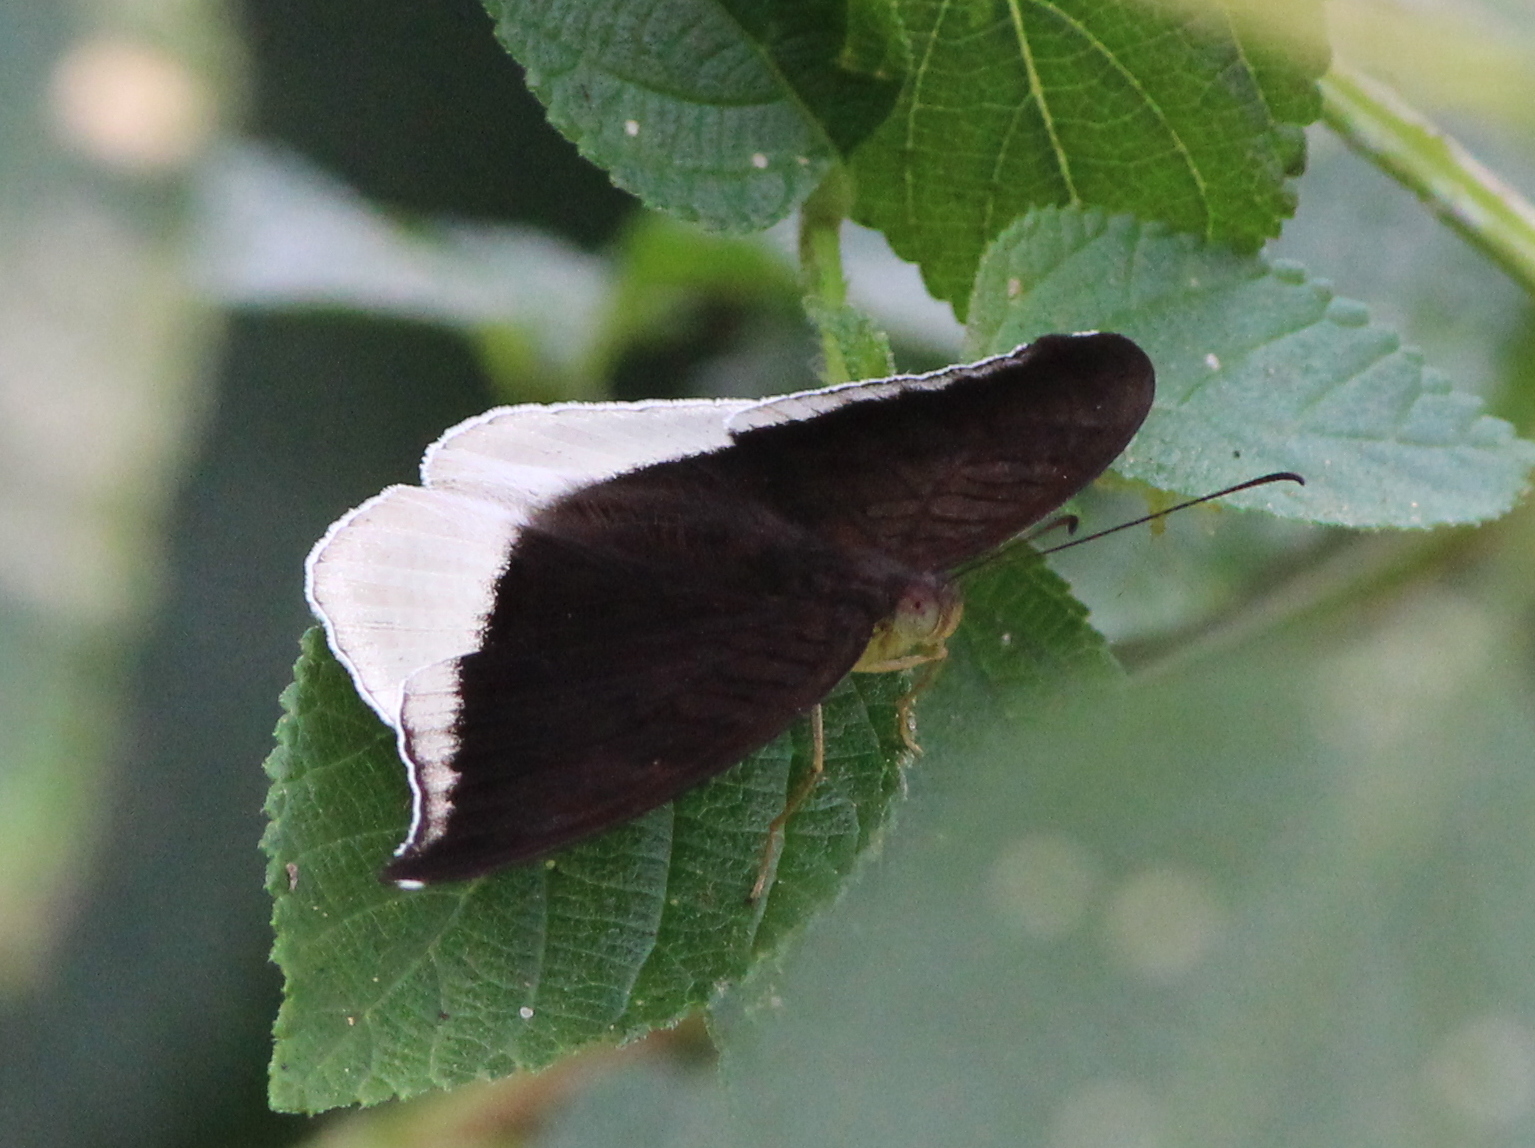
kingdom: Animalia
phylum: Arthropoda
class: Insecta
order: Lepidoptera
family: Nymphalidae
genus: Tanaecia
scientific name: Tanaecia lepidea
